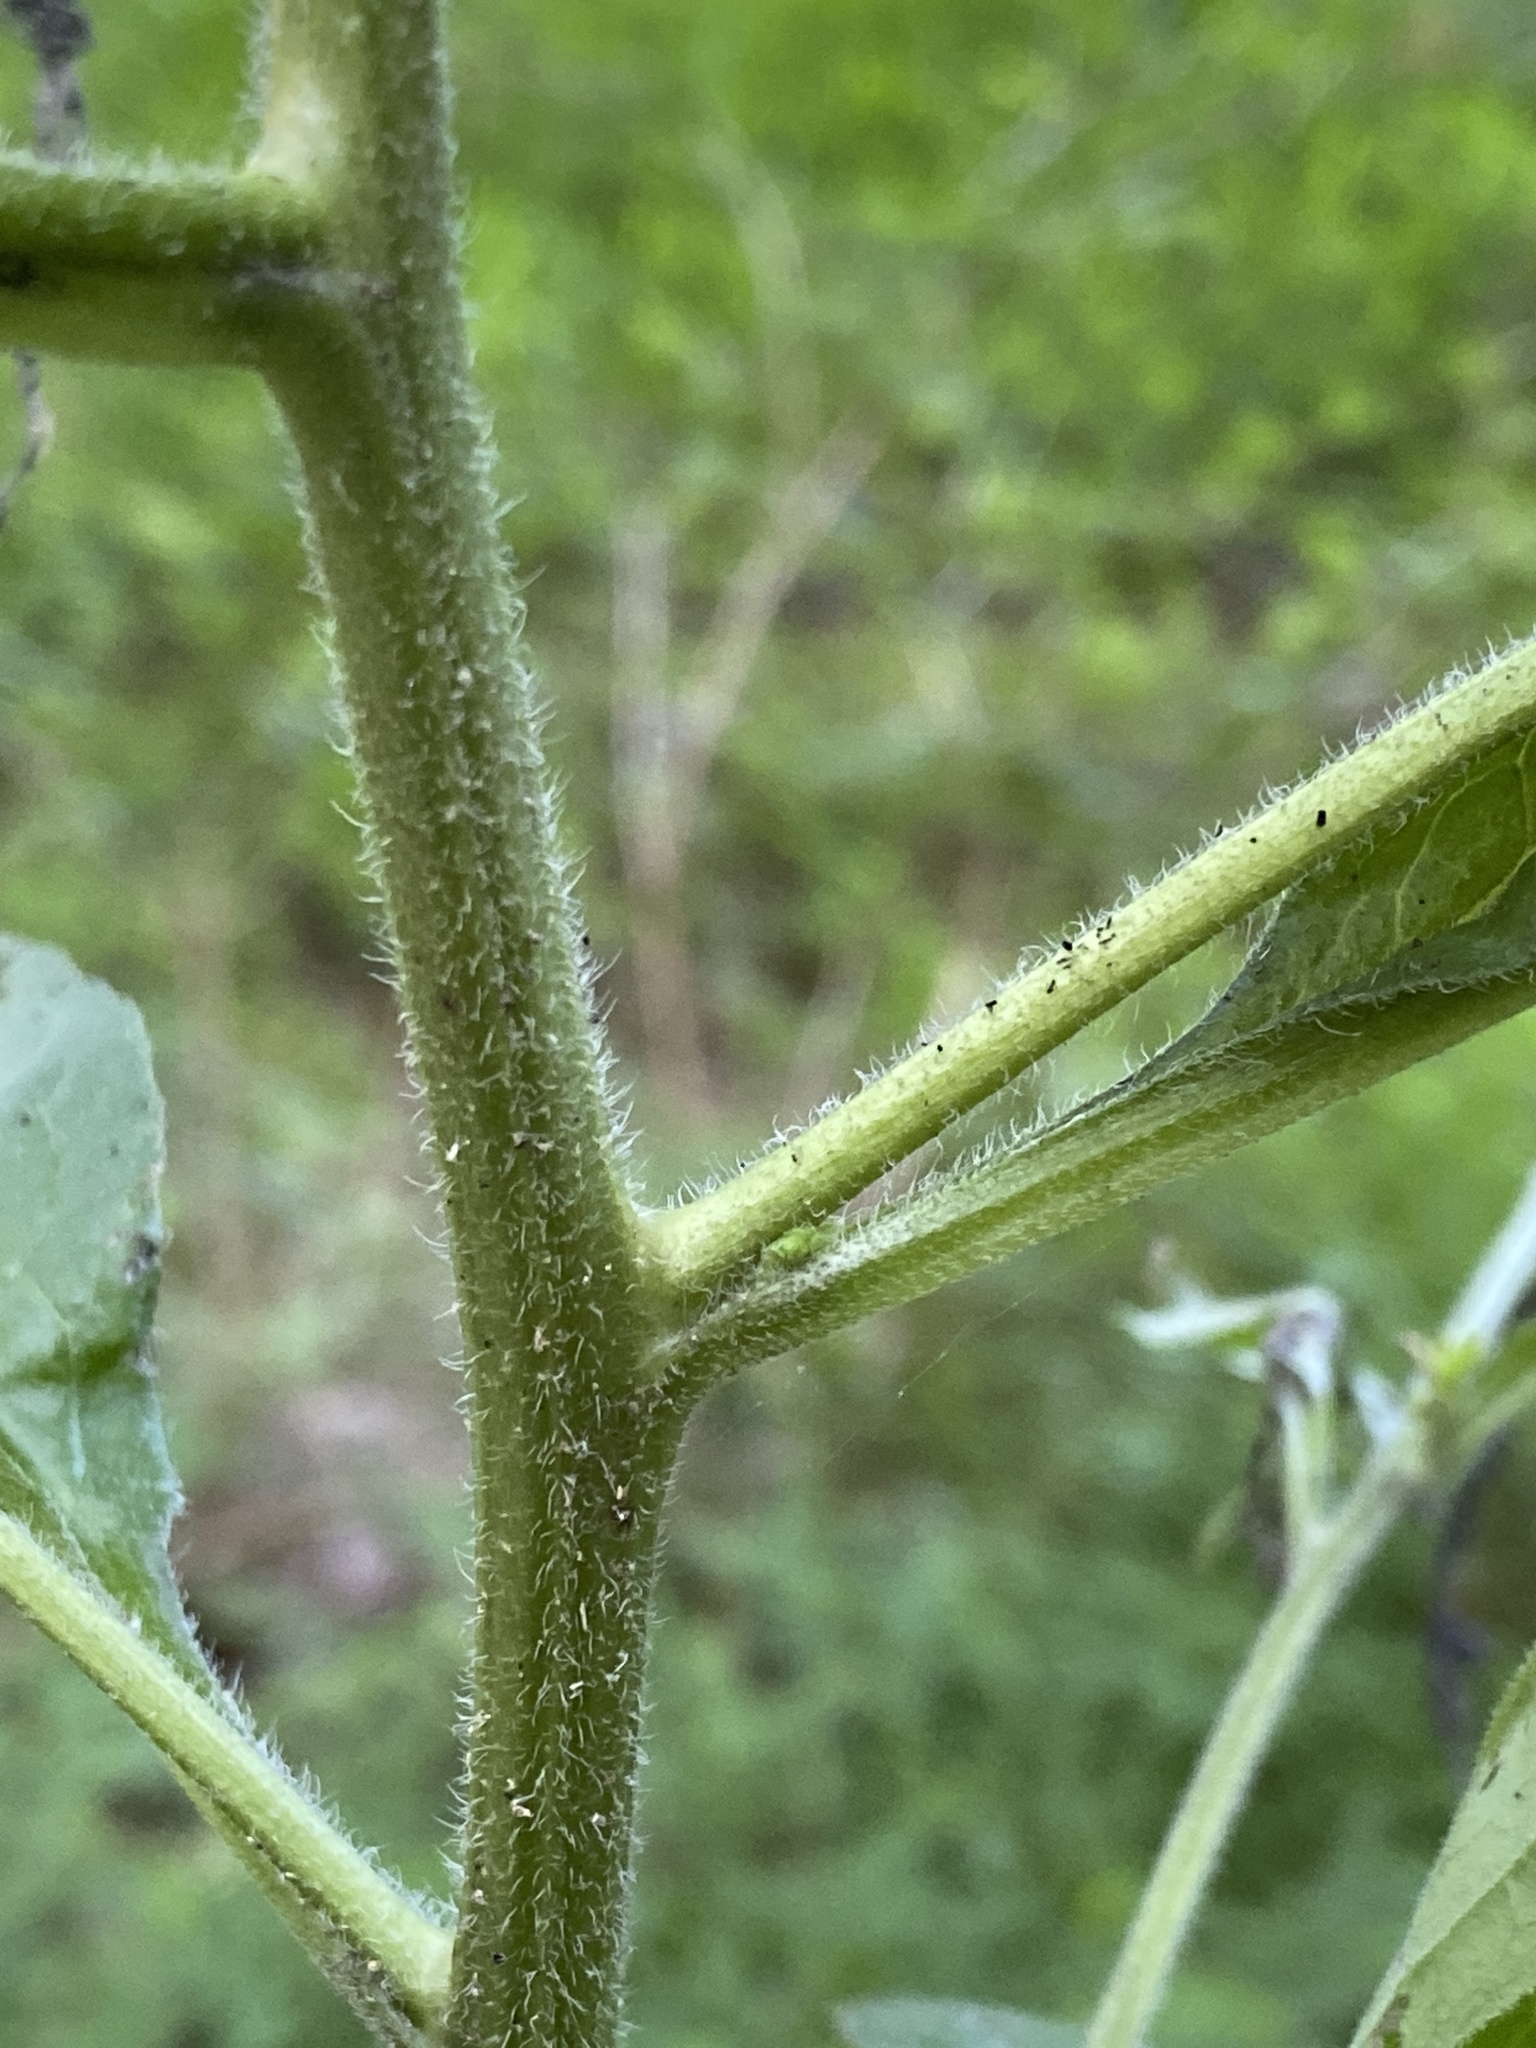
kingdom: Plantae
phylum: Tracheophyta
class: Magnoliopsida
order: Boraginales
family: Boraginaceae
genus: Hackelia
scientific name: Hackelia virginiana
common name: Beggar's-lice
